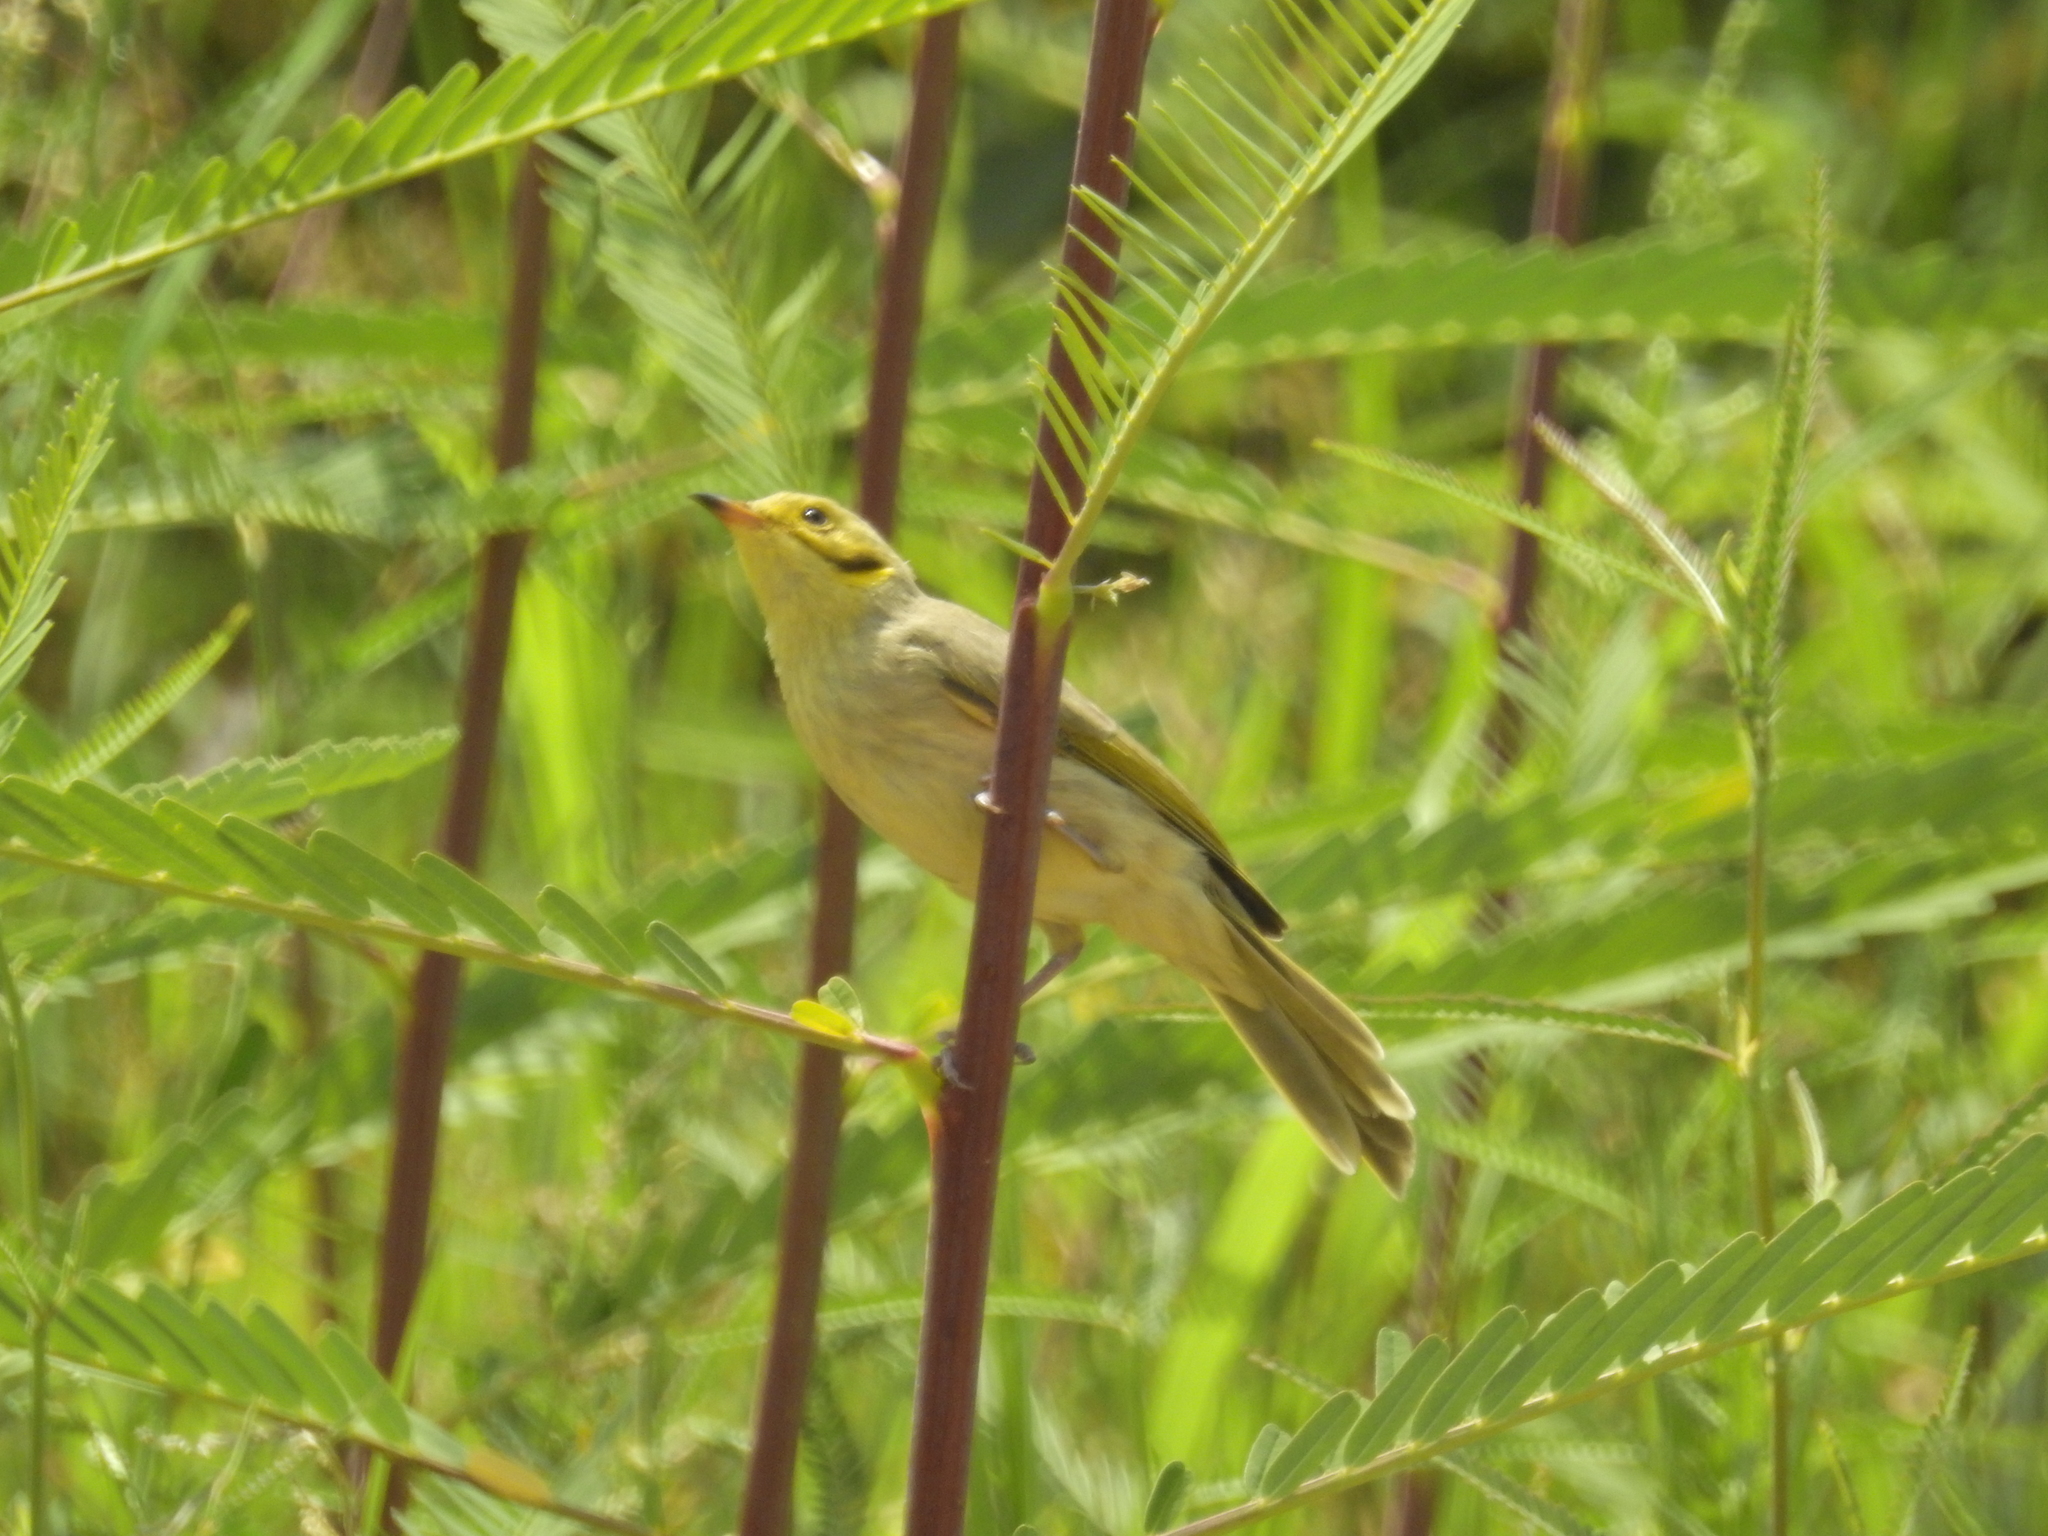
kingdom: Animalia
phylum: Chordata
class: Aves
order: Passeriformes
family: Meliphagidae
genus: Ptilotula
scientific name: Ptilotula flavescens
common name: Yellow-tinted honeyeater
